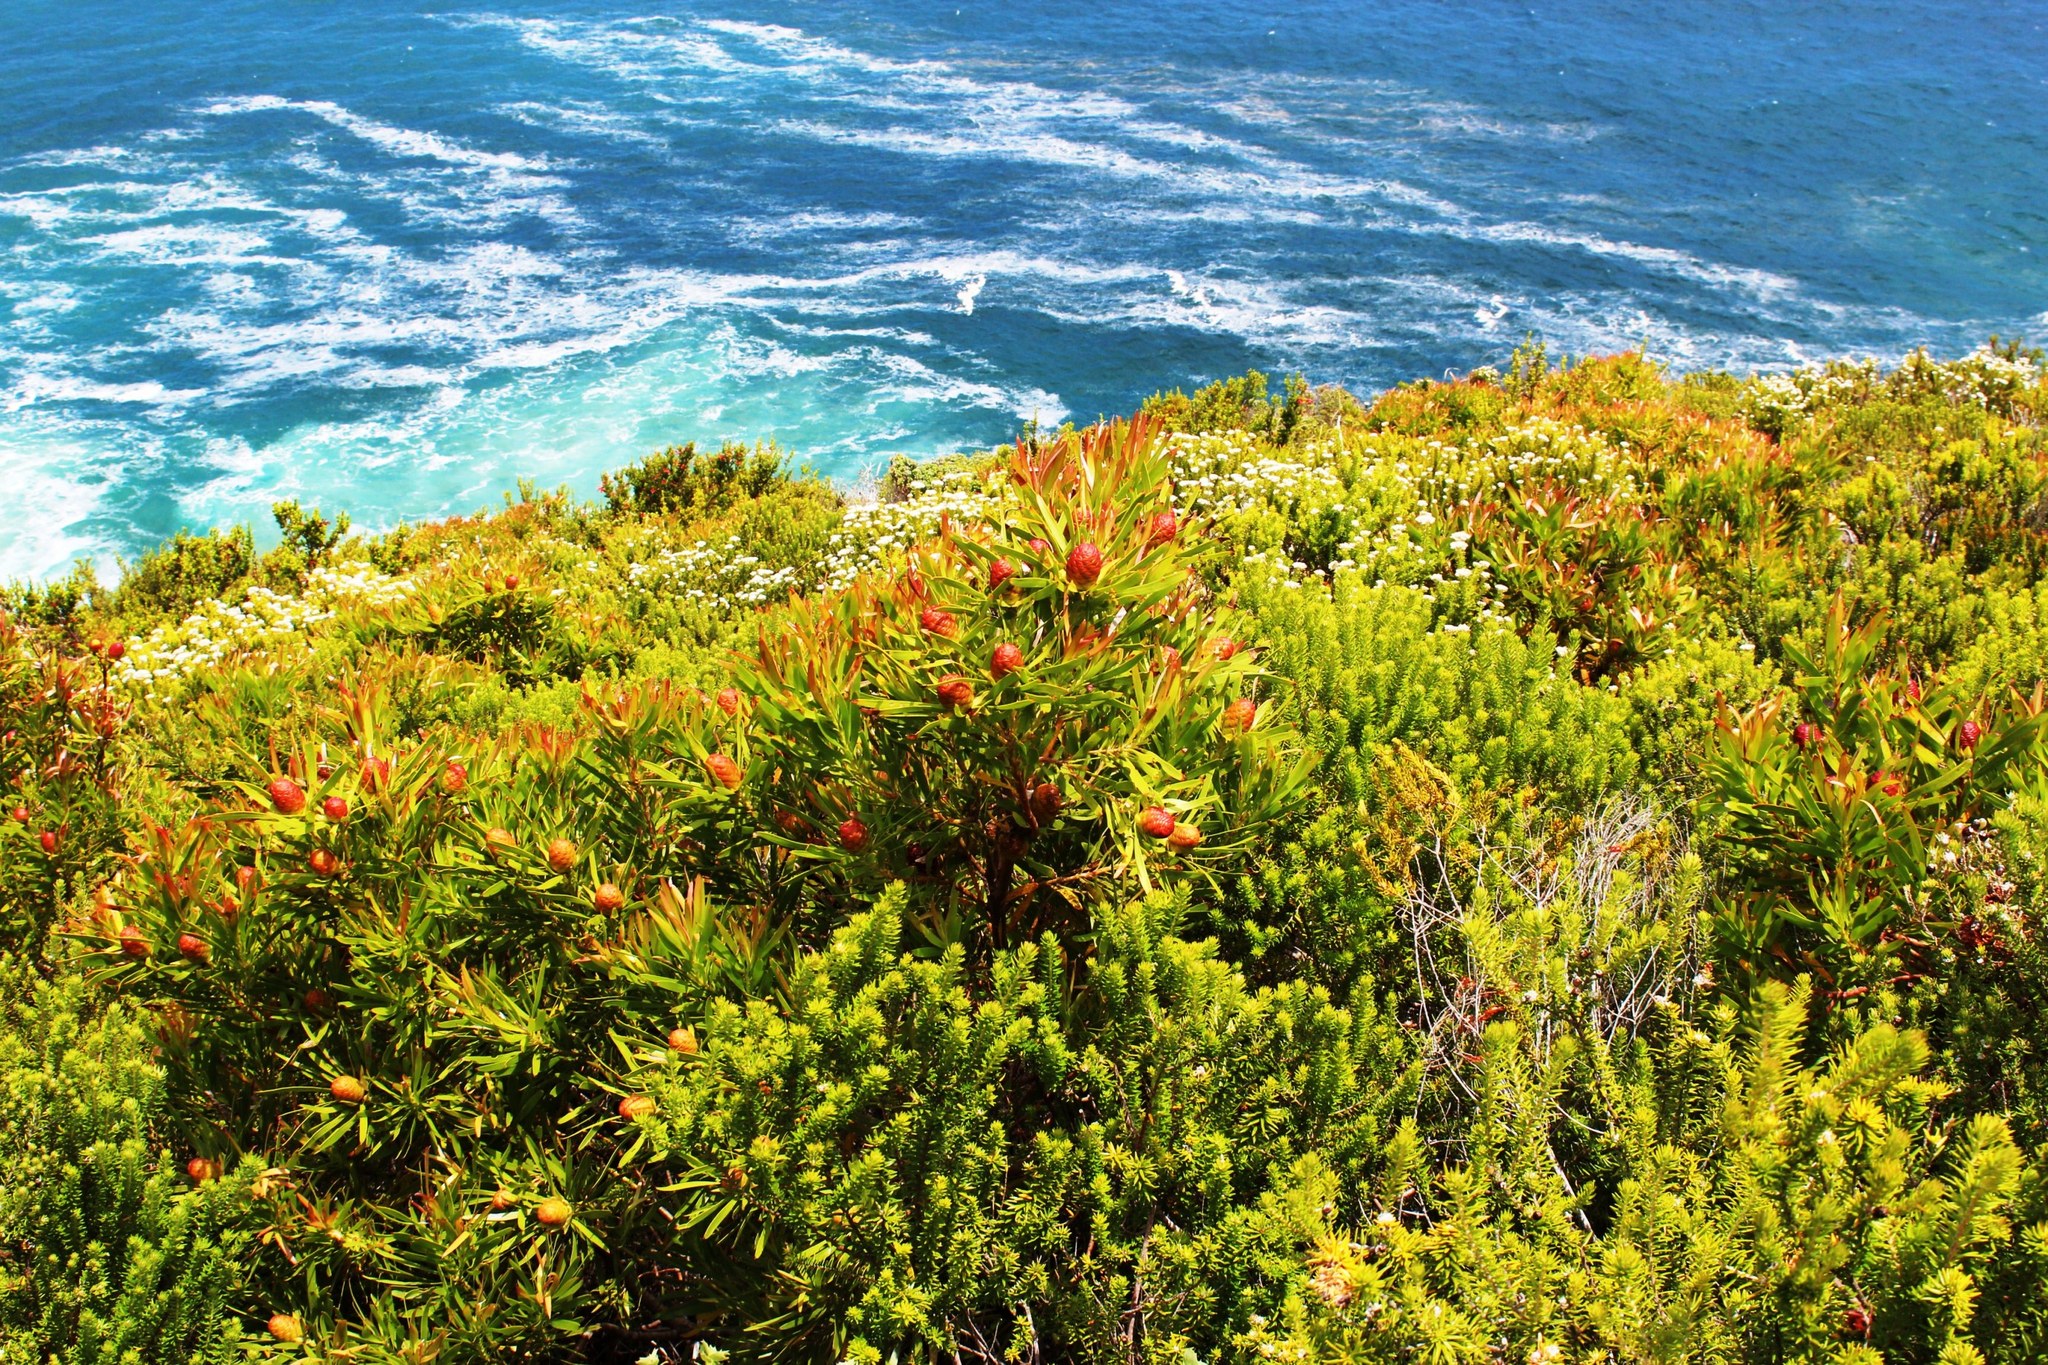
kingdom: Plantae
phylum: Tracheophyta
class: Magnoliopsida
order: Proteales
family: Proteaceae
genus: Leucadendron
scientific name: Leucadendron eucalyptifolium
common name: Gum-leaved conebush
